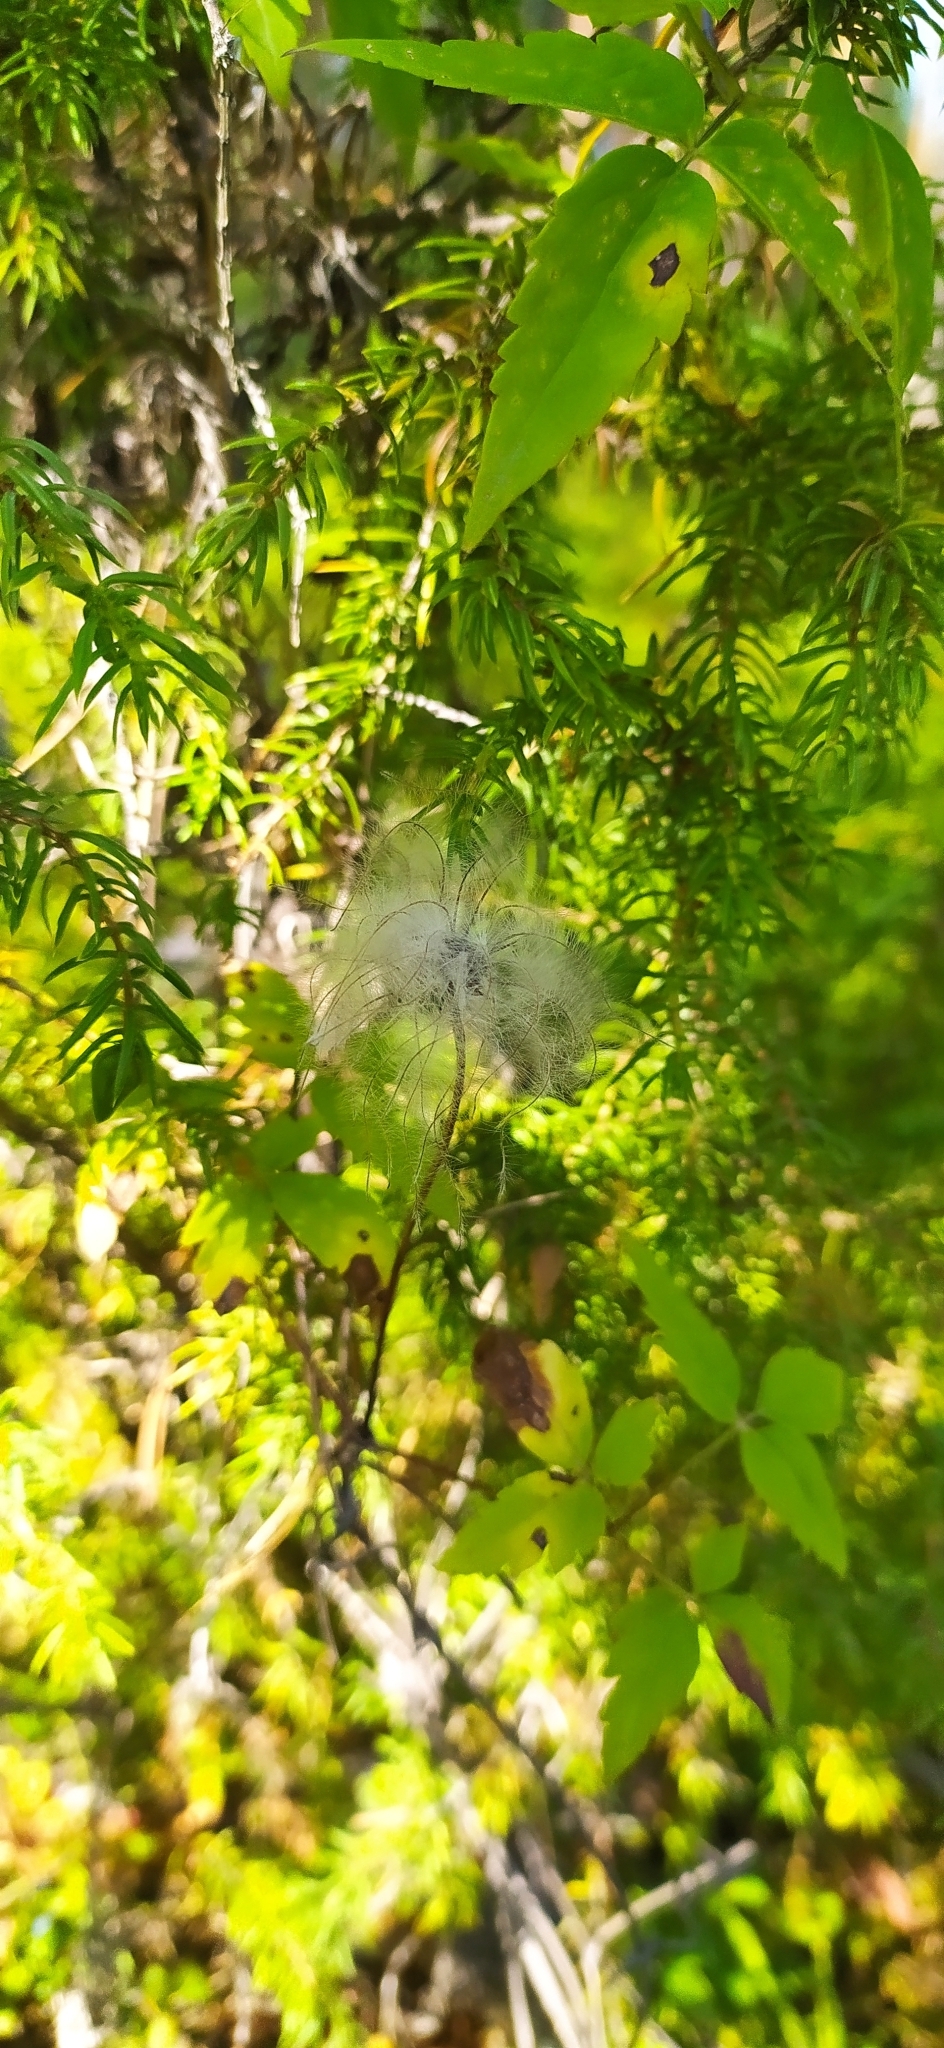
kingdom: Plantae
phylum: Tracheophyta
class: Magnoliopsida
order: Ranunculales
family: Ranunculaceae
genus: Clematis
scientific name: Clematis sibirica
